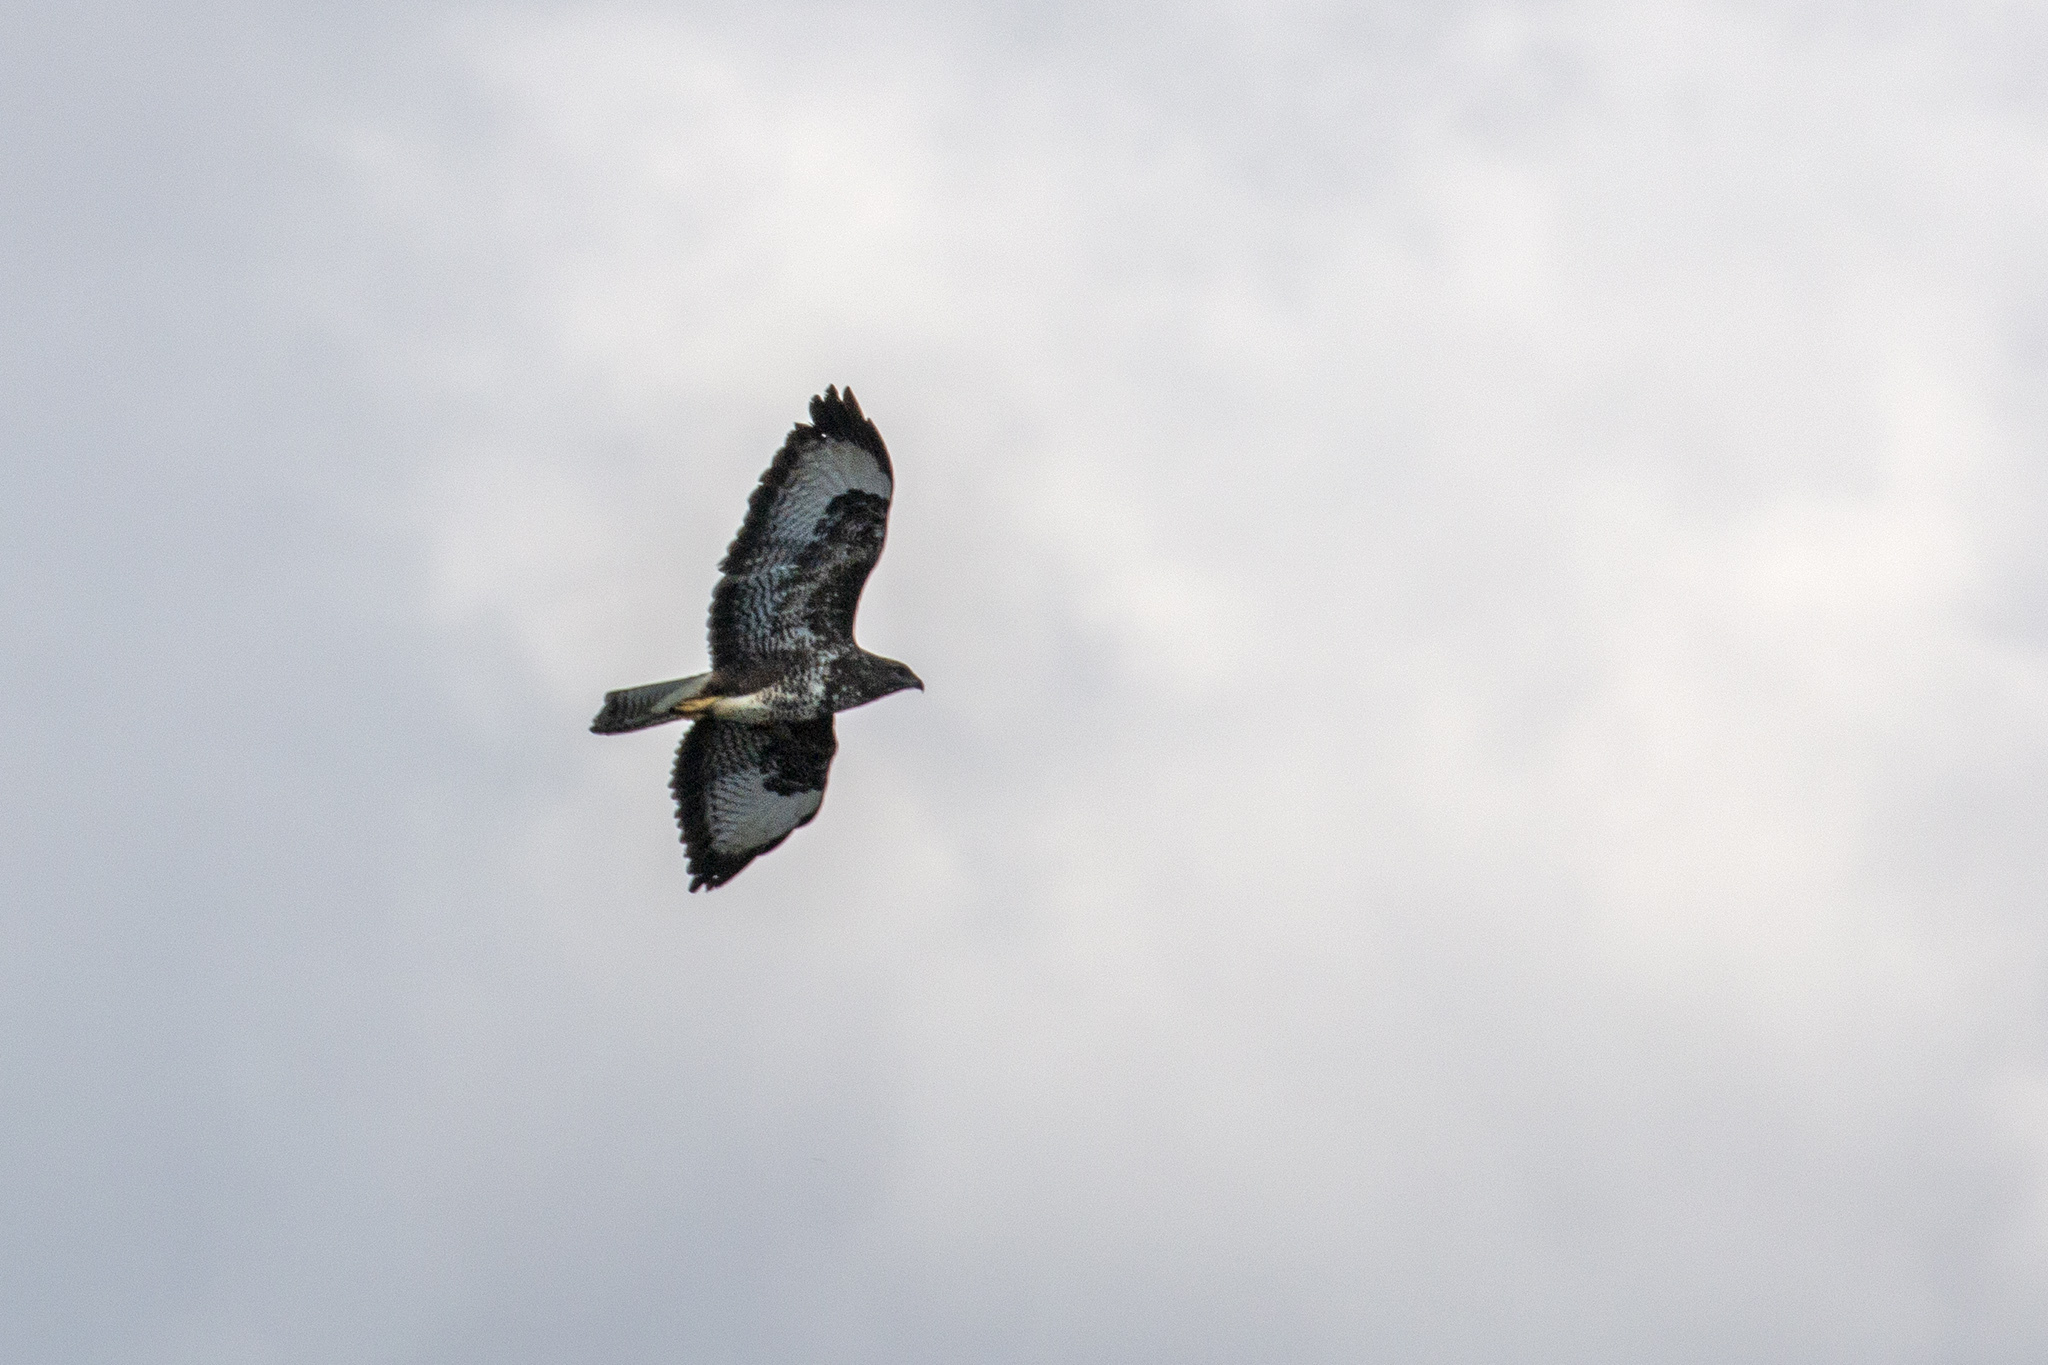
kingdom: Animalia
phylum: Chordata
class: Aves
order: Accipitriformes
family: Accipitridae
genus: Buteo
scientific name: Buteo buteo
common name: Common buzzard
